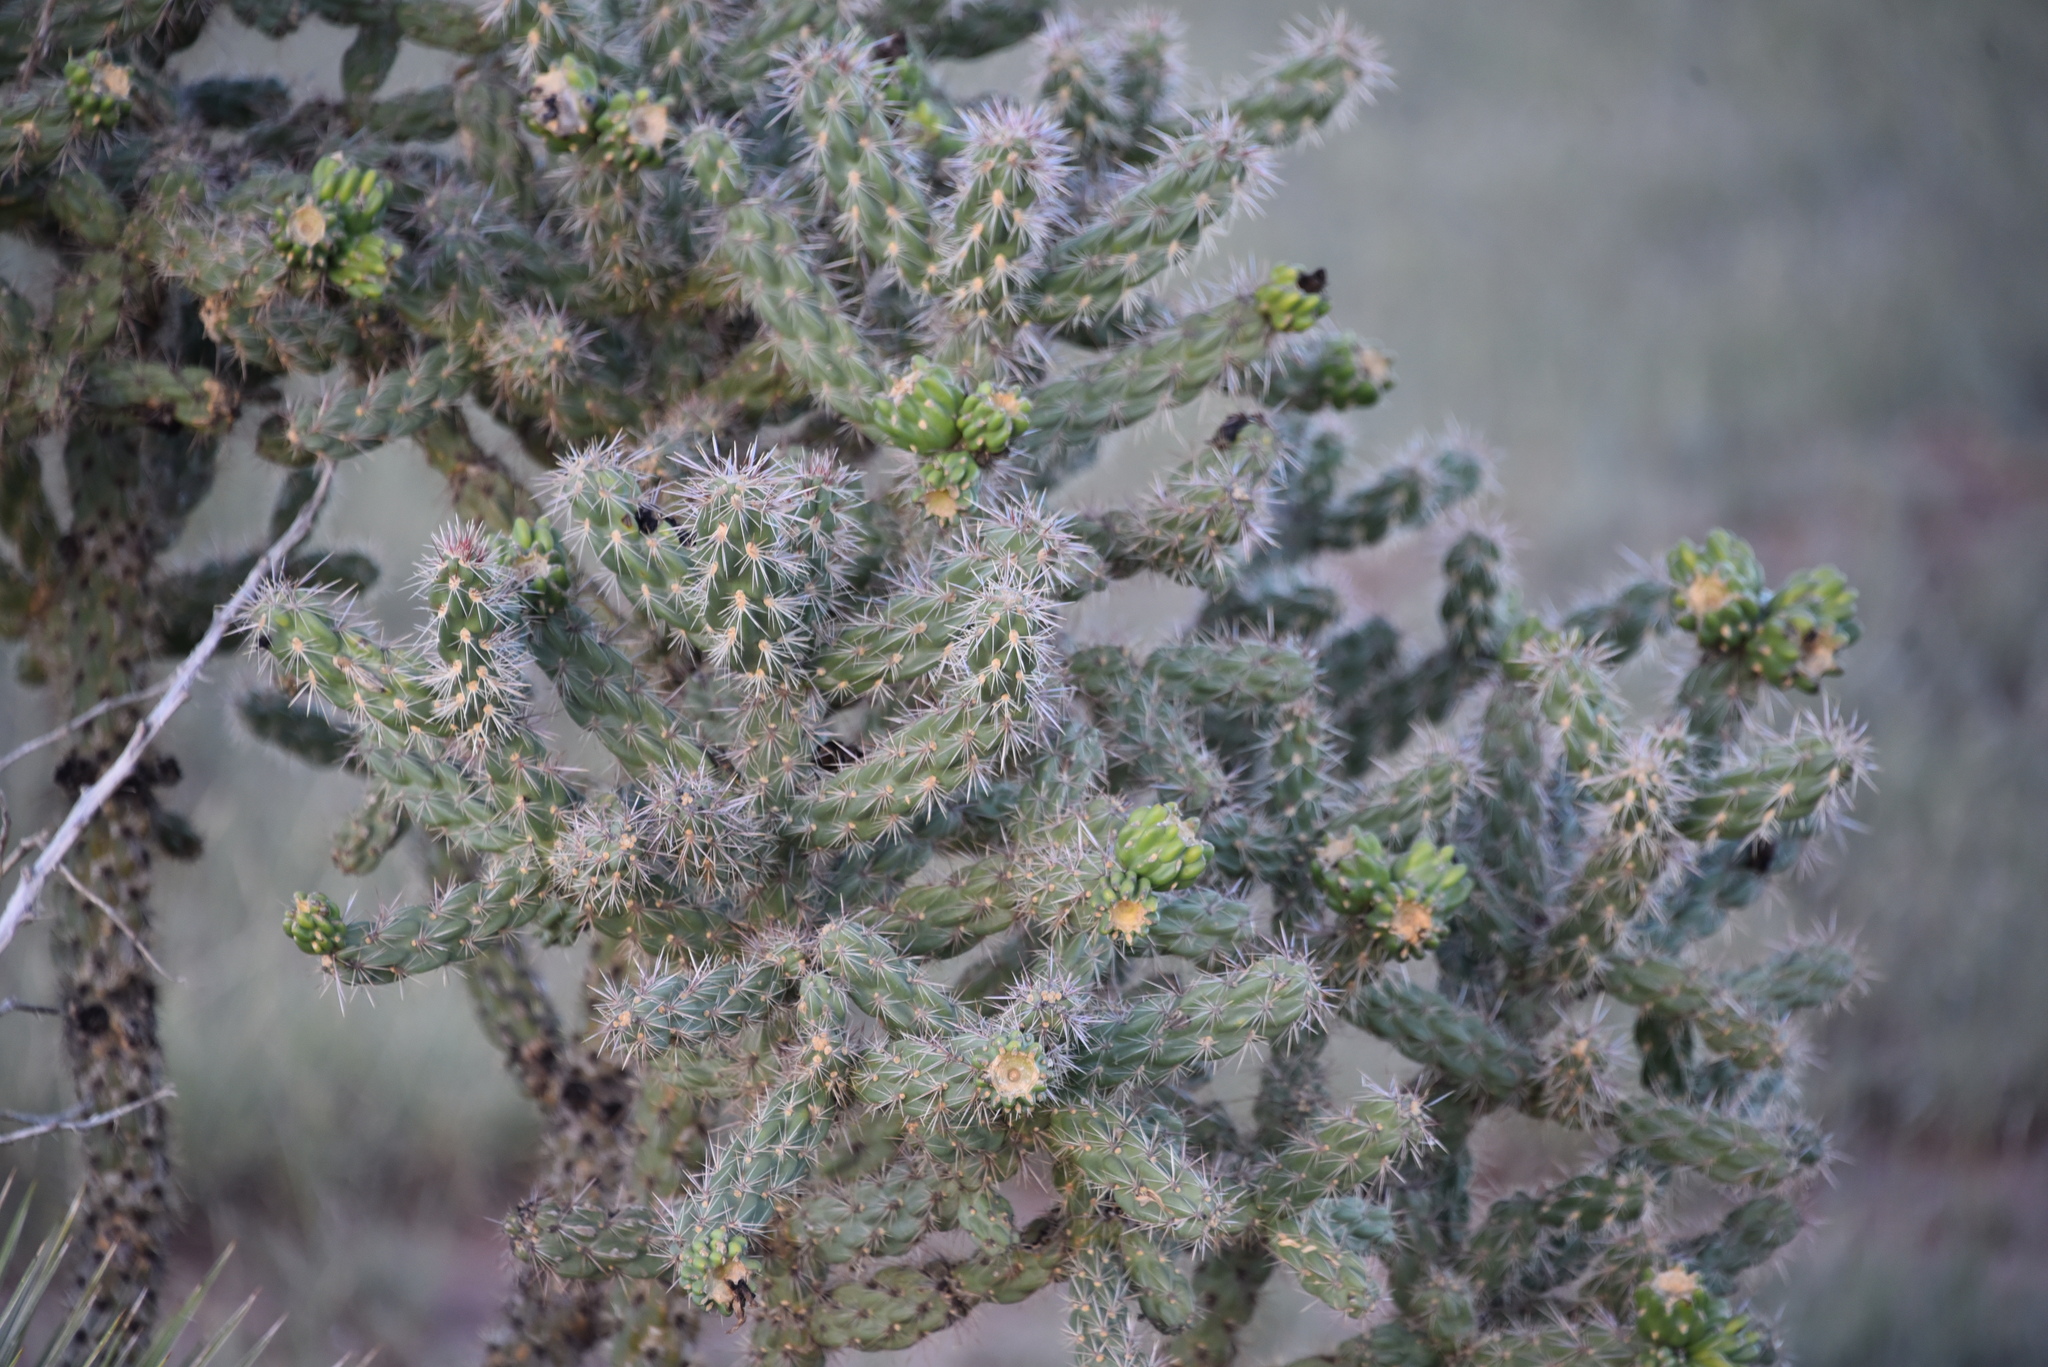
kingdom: Plantae
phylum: Tracheophyta
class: Magnoliopsida
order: Caryophyllales
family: Cactaceae
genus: Cylindropuntia
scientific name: Cylindropuntia imbricata
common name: Candelabrum cactus
